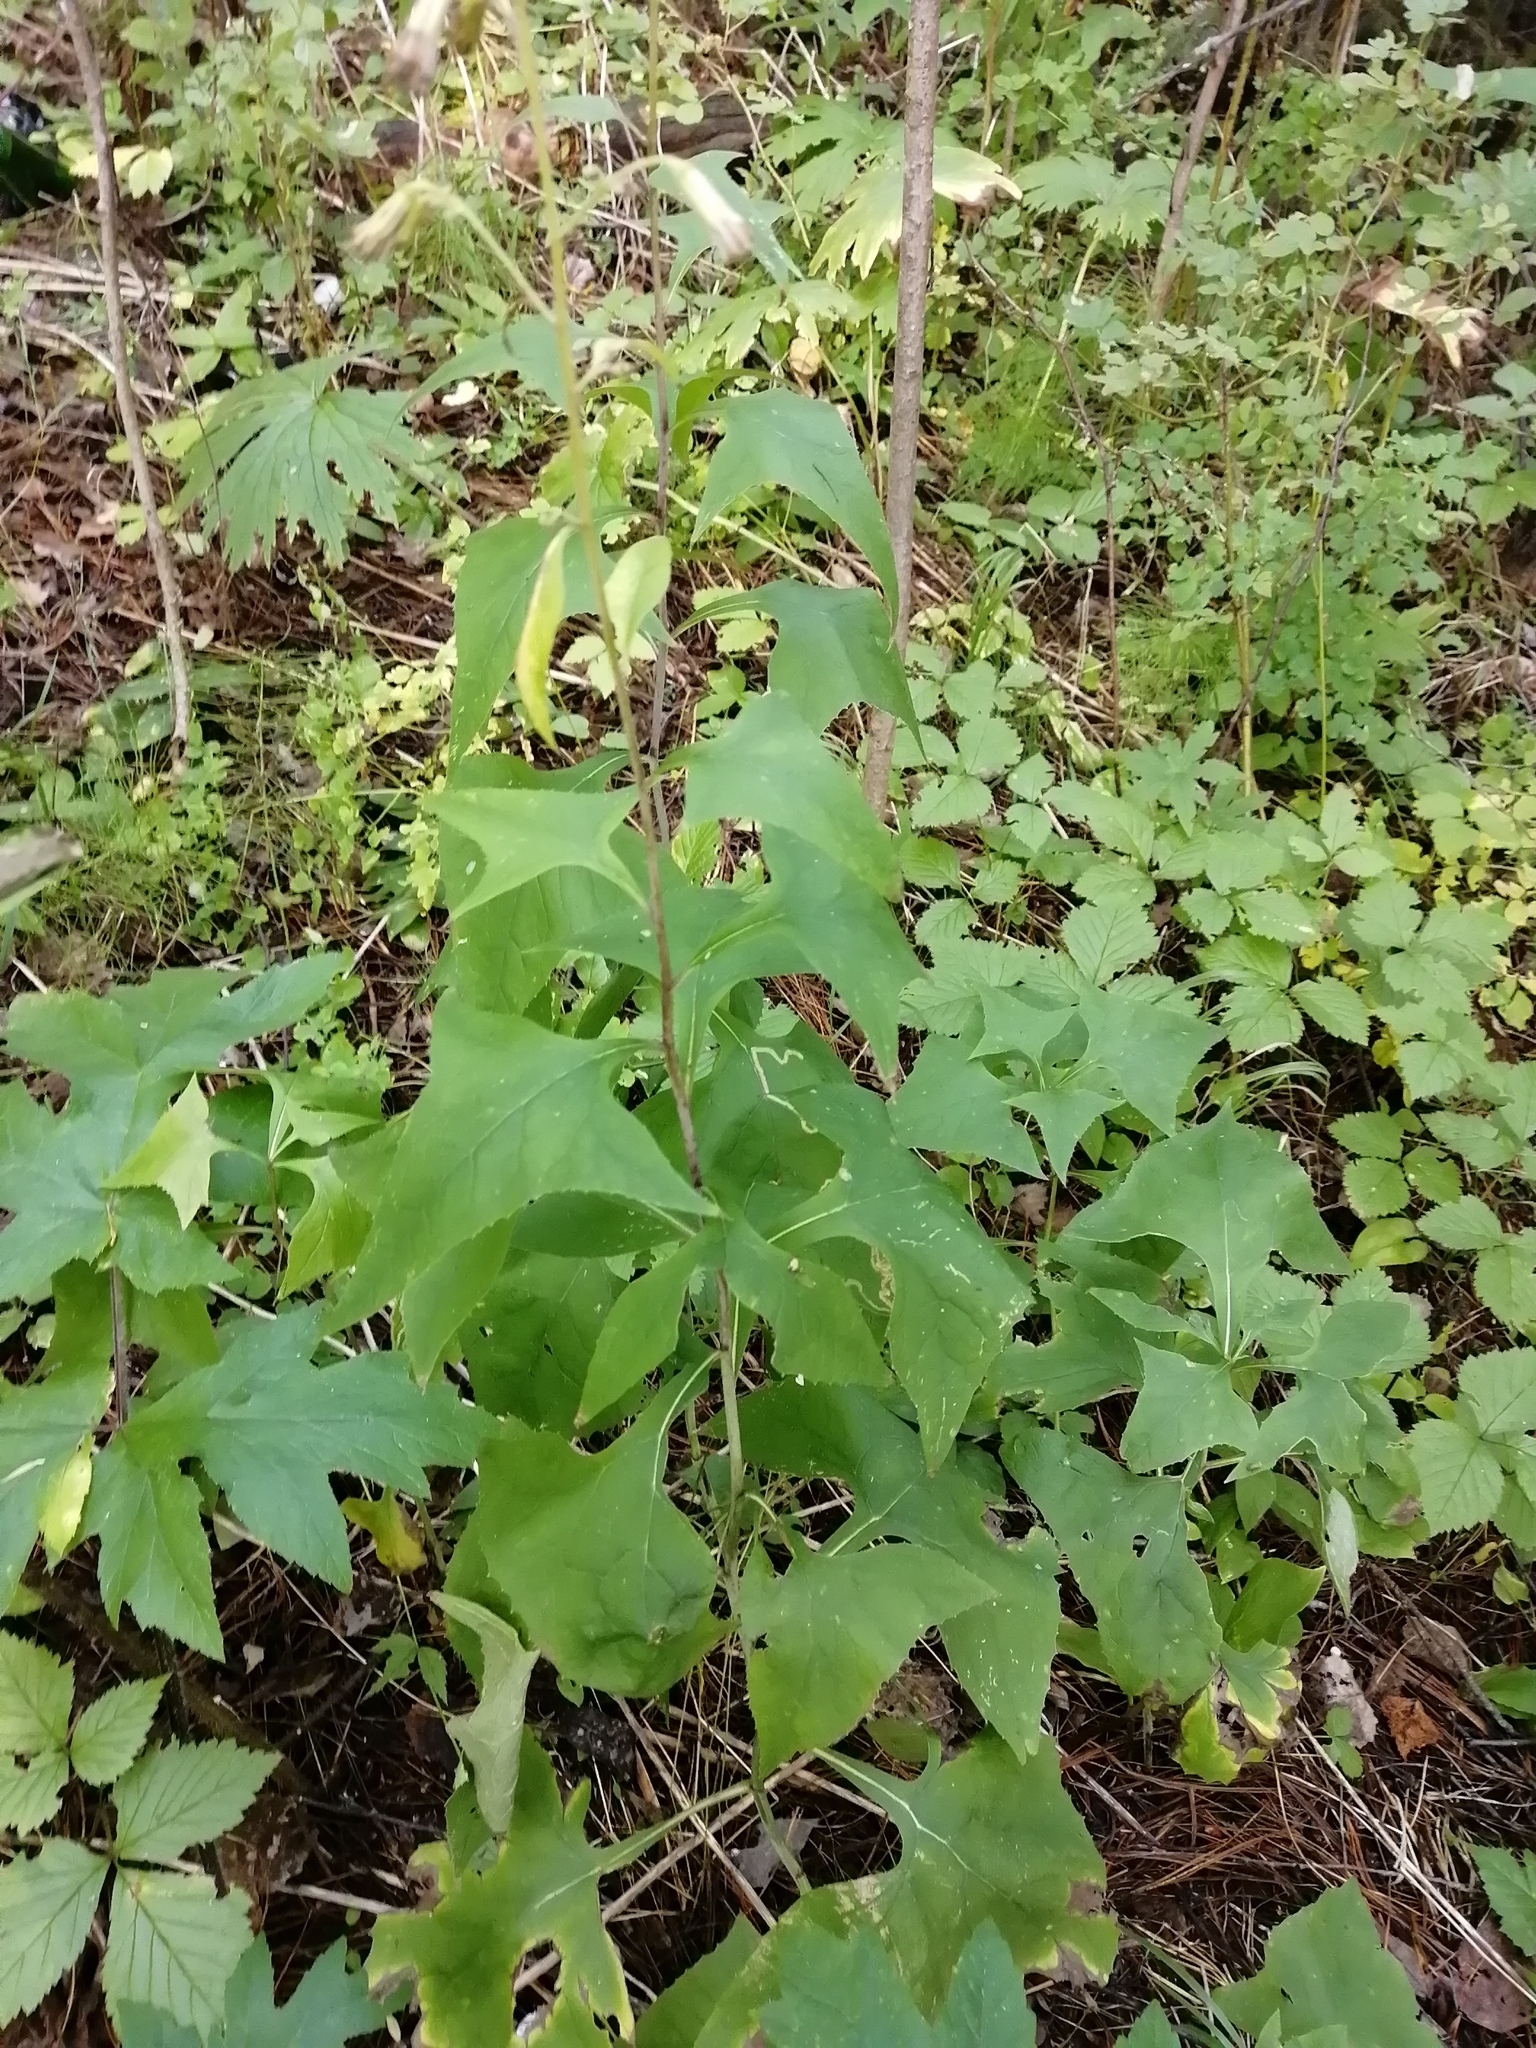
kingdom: Plantae
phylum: Tracheophyta
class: Magnoliopsida
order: Asterales
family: Asteraceae
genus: Parasenecio
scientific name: Parasenecio hastatus
